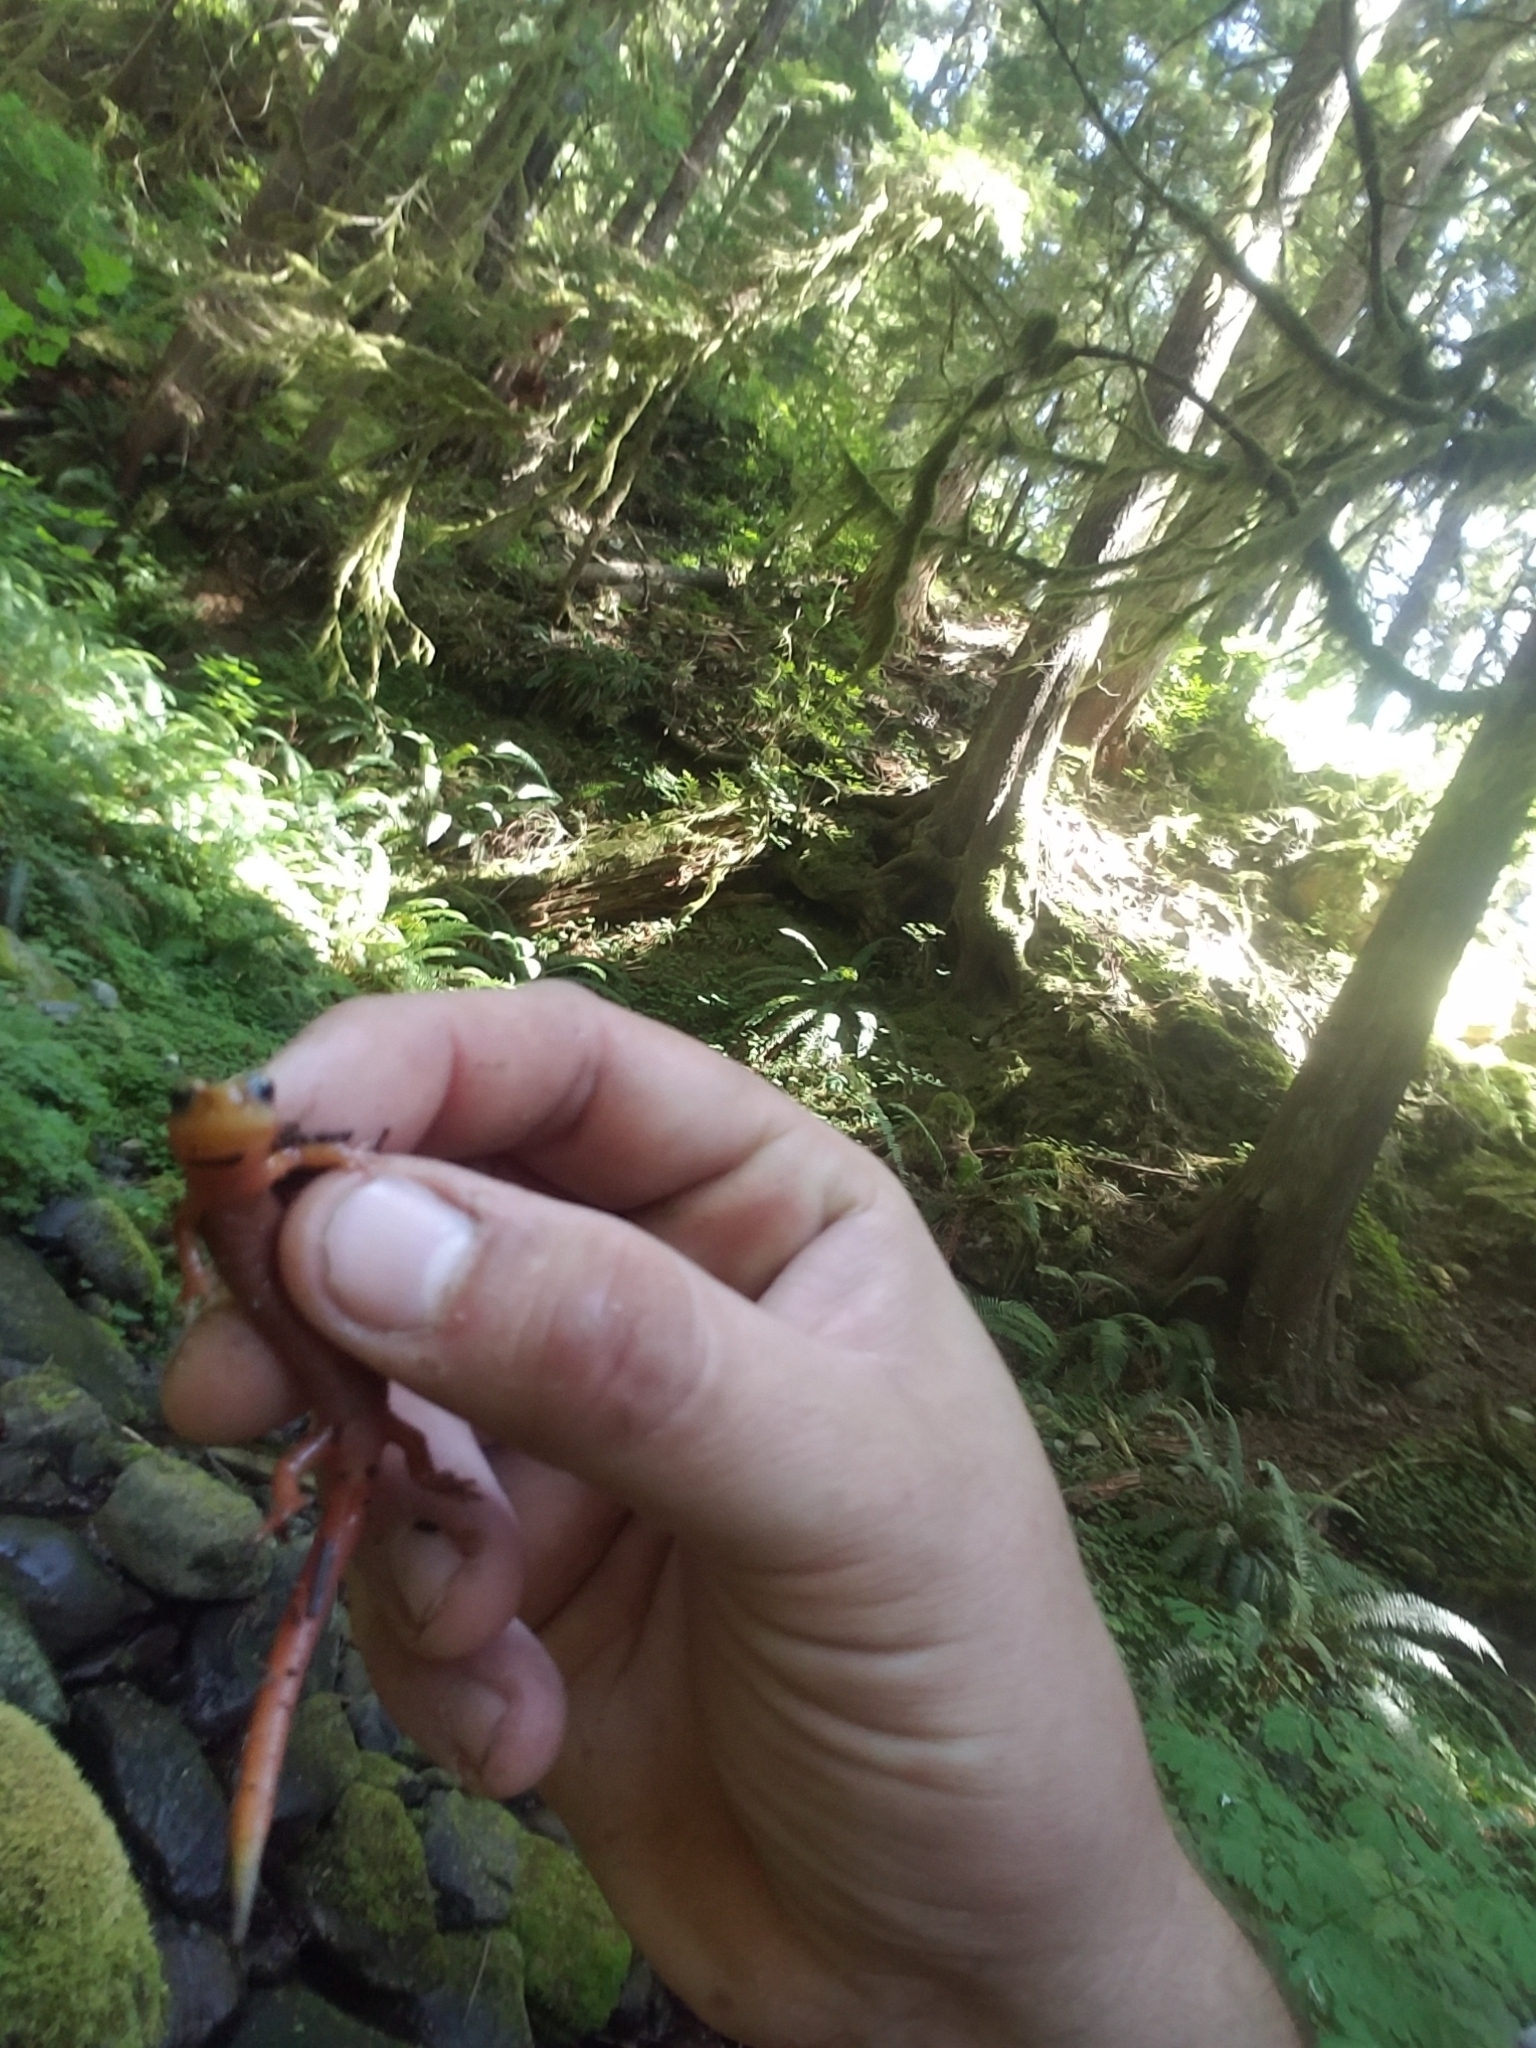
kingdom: Animalia
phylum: Chordata
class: Amphibia
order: Caudata
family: Plethodontidae
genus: Plethodon
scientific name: Plethodon vandykei
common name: Van dyke's salamander
